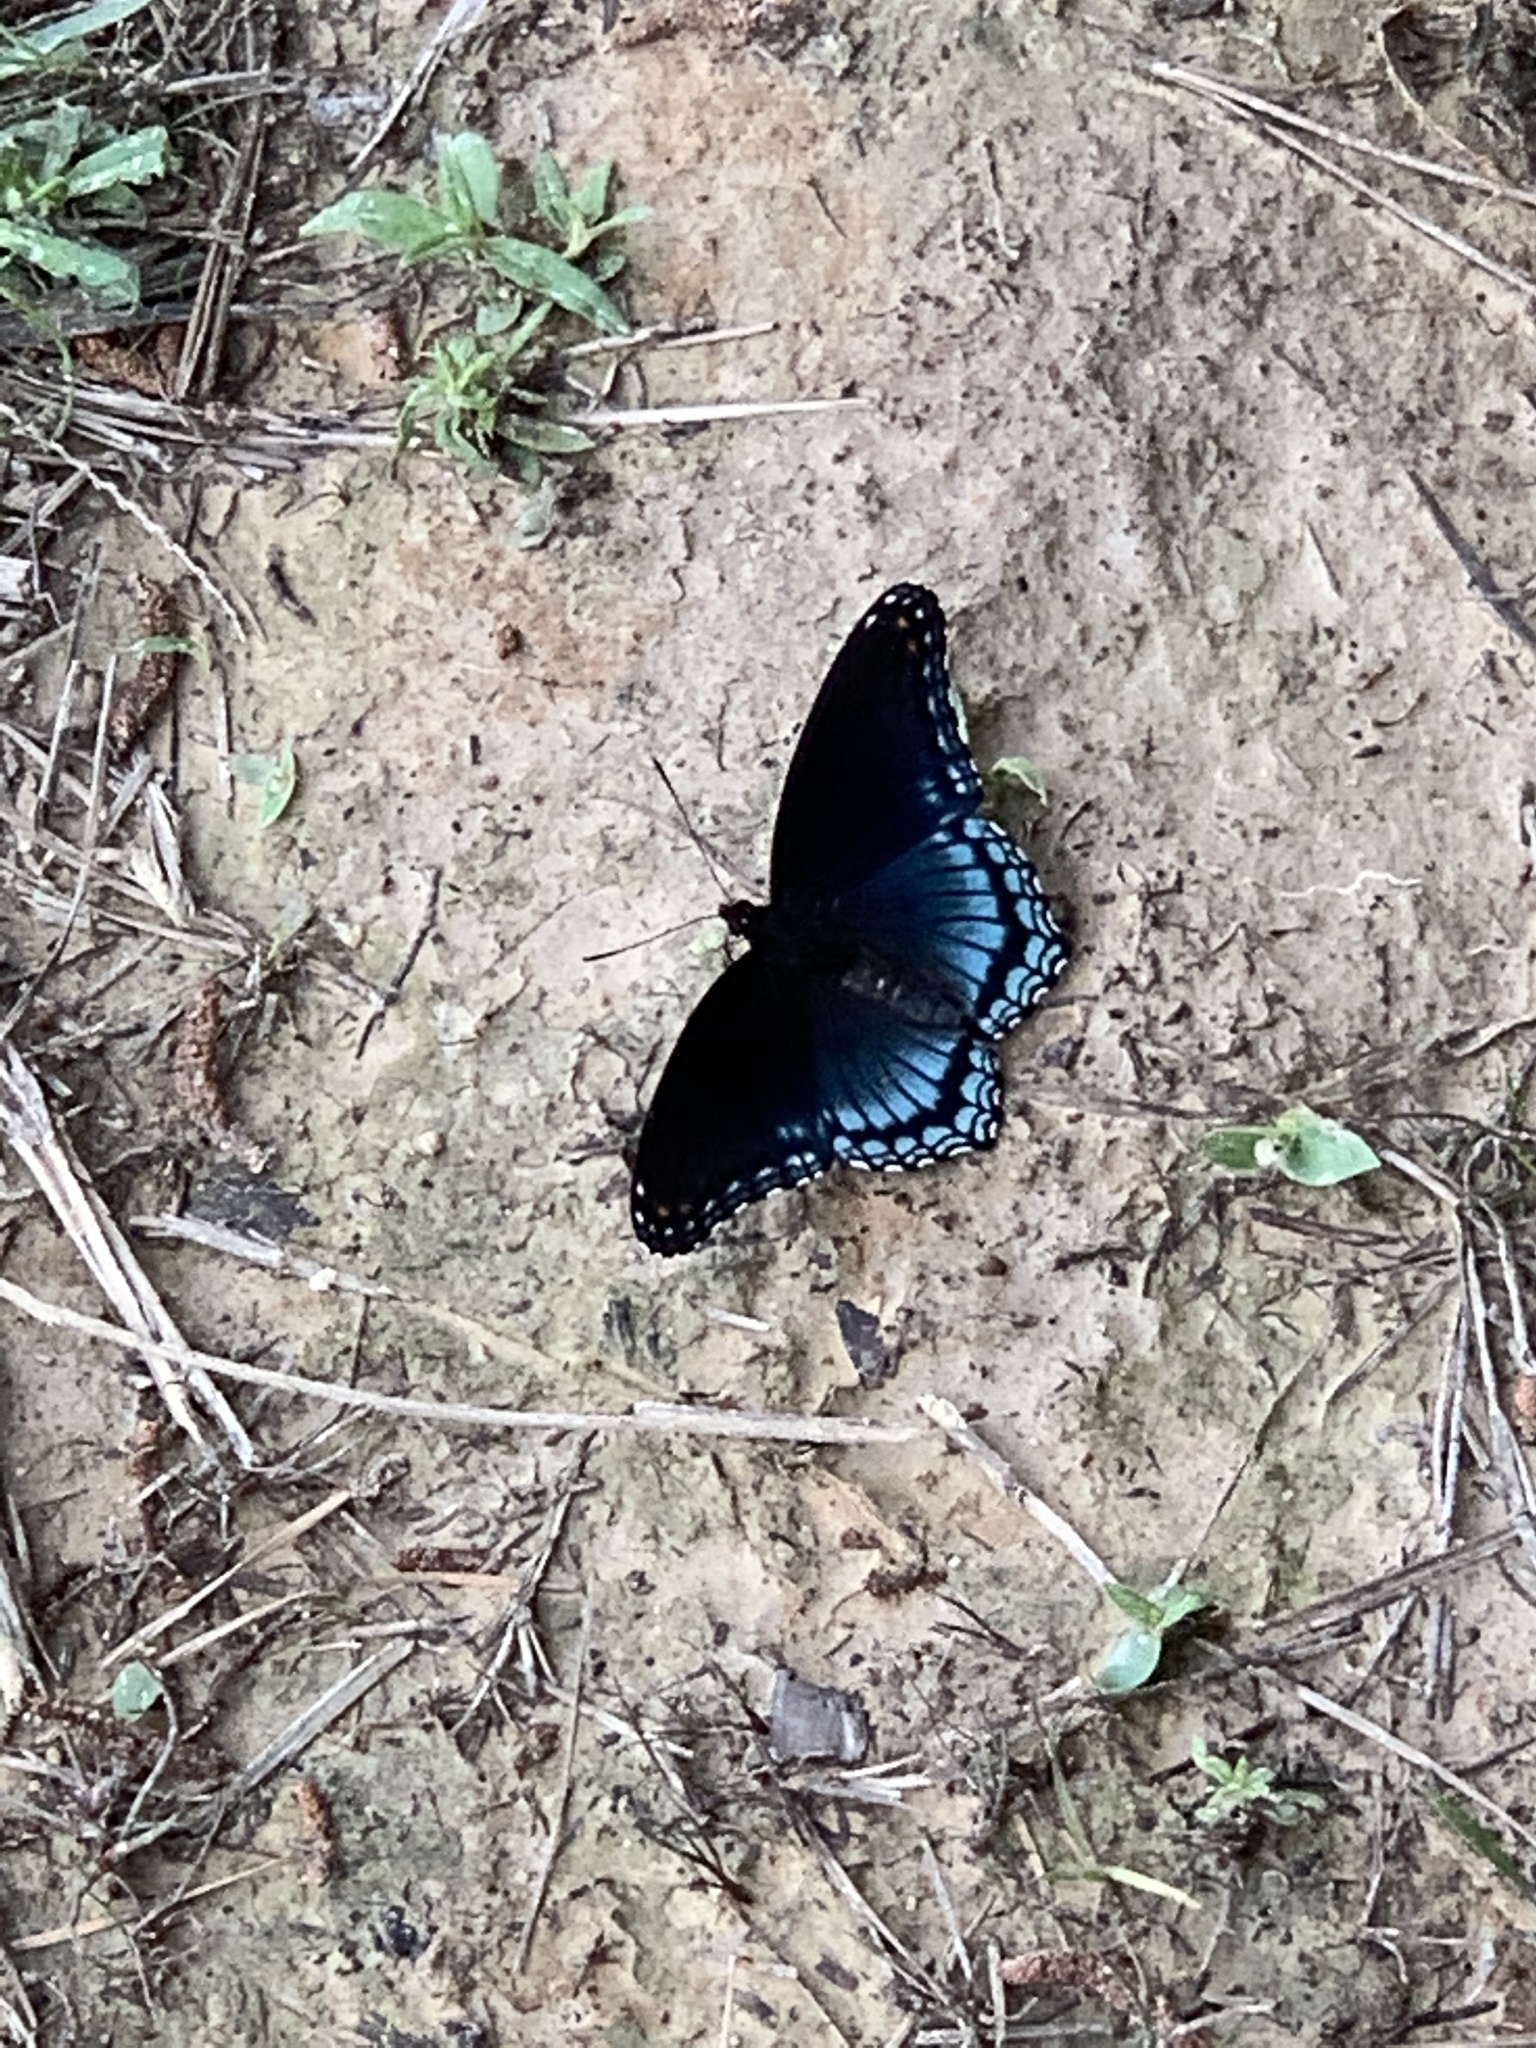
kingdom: Animalia
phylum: Arthropoda
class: Insecta
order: Lepidoptera
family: Nymphalidae
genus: Limenitis
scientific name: Limenitis arthemis
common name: Red-spotted admiral
